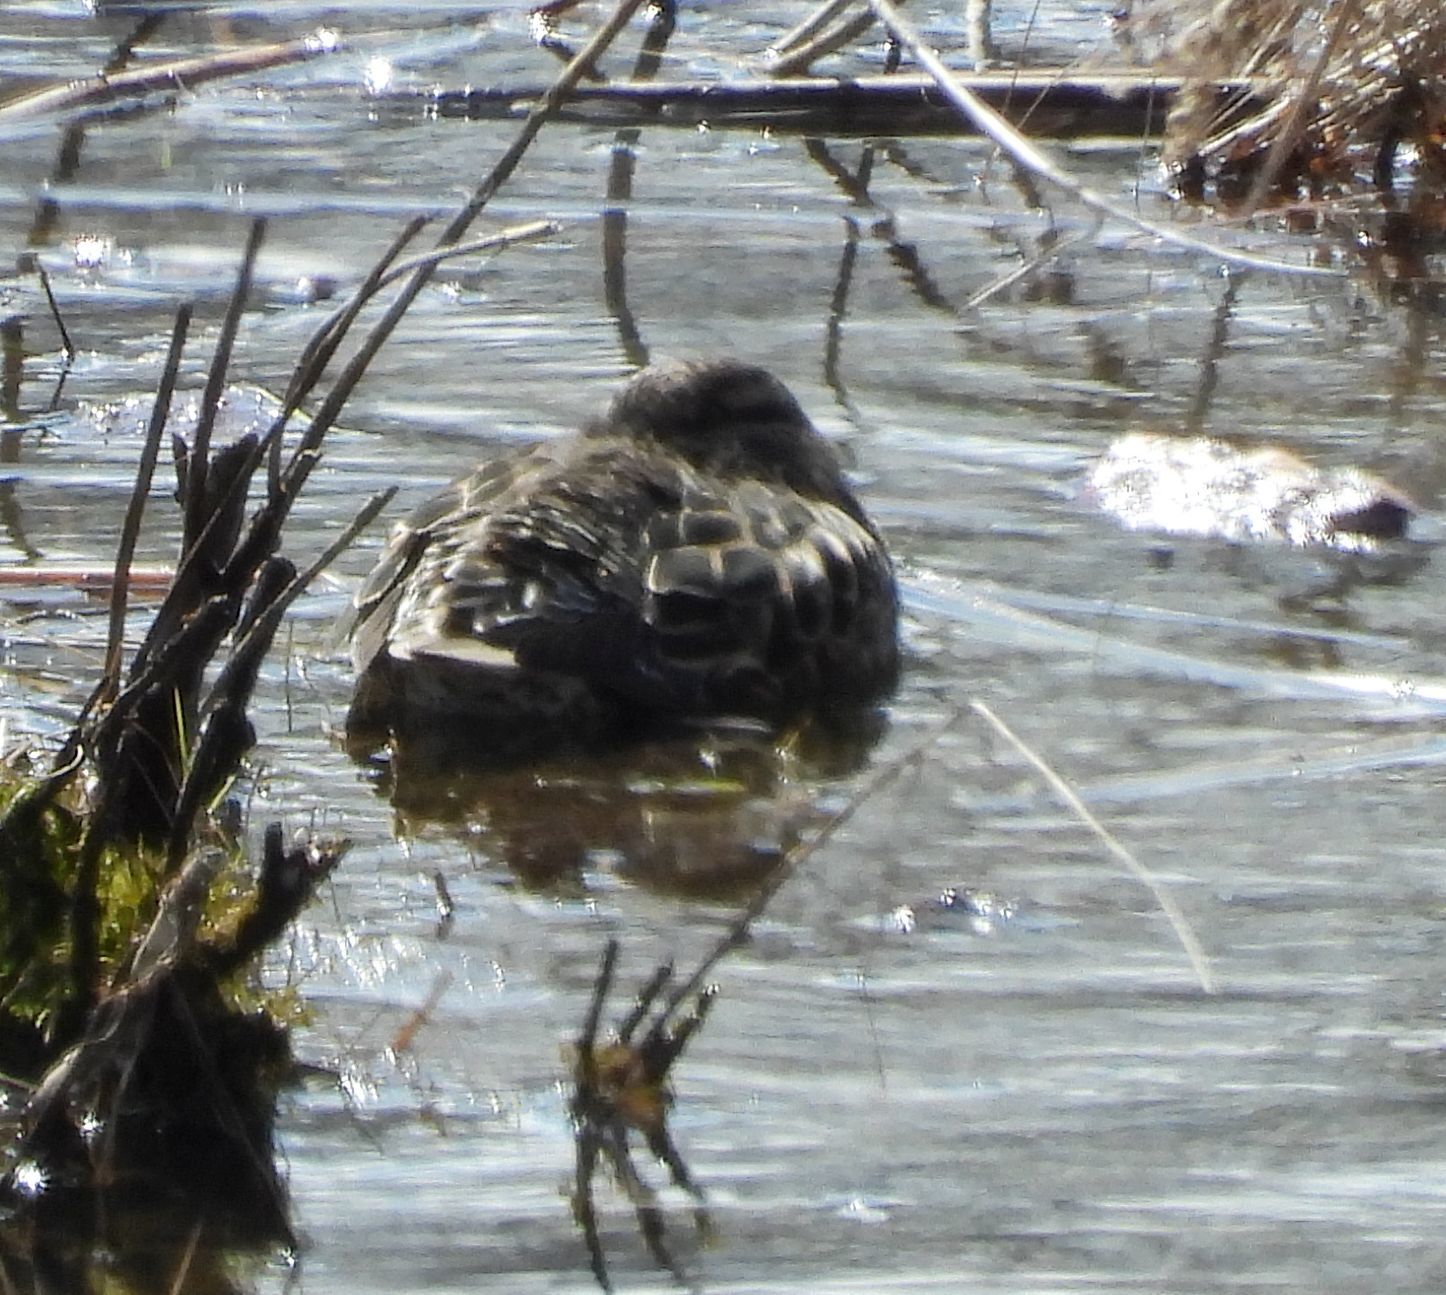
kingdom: Animalia
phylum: Chordata
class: Aves
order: Anseriformes
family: Anatidae
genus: Anas
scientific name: Anas crecca
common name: Eurasian teal
